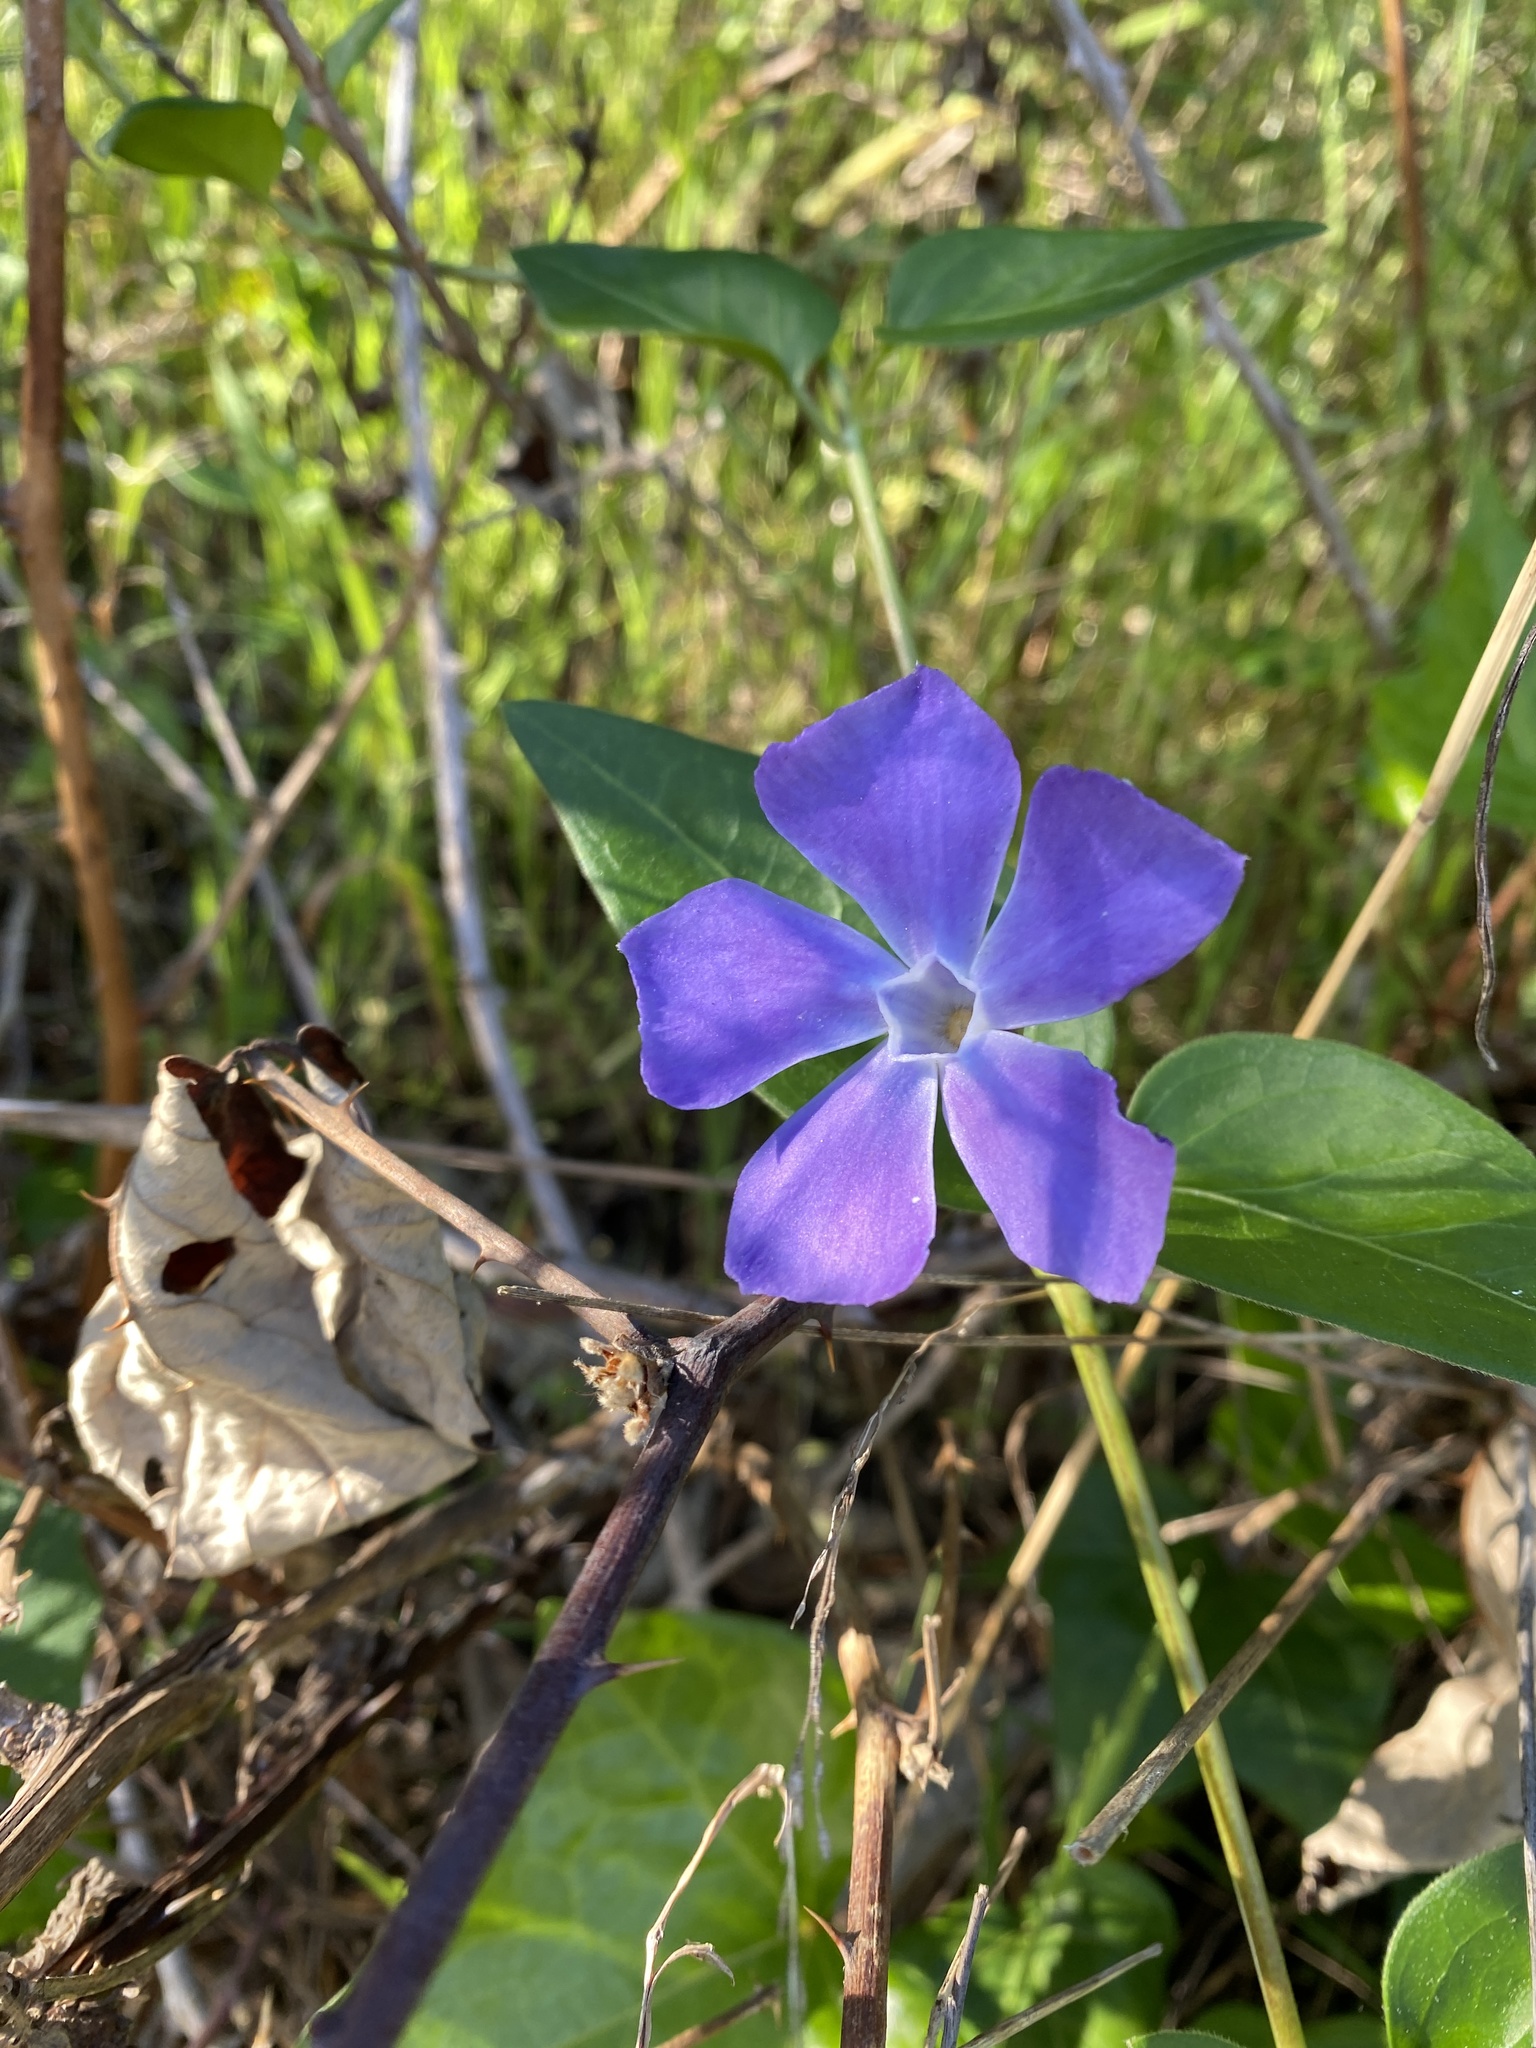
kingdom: Plantae
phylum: Tracheophyta
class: Magnoliopsida
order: Gentianales
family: Apocynaceae
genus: Vinca
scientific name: Vinca major
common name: Greater periwinkle
